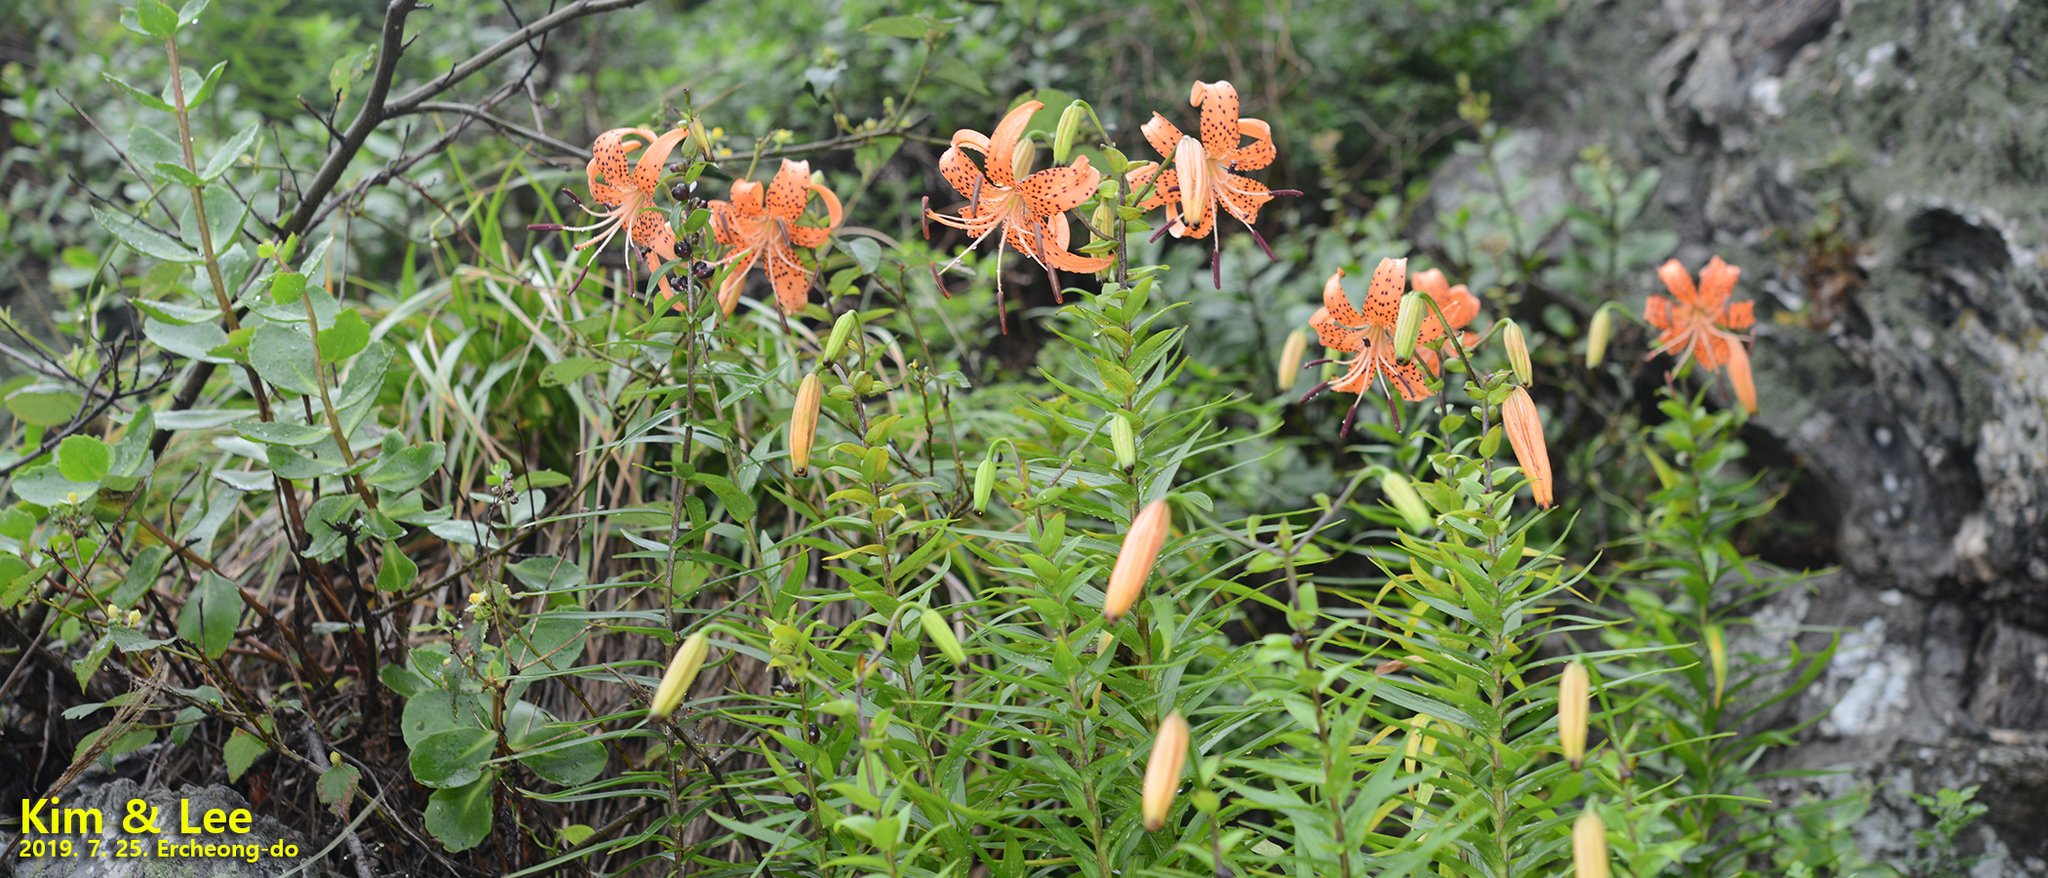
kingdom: Plantae
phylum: Tracheophyta
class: Liliopsida
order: Liliales
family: Liliaceae
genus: Lilium
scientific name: Lilium lancifolium
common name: Tiger lily
